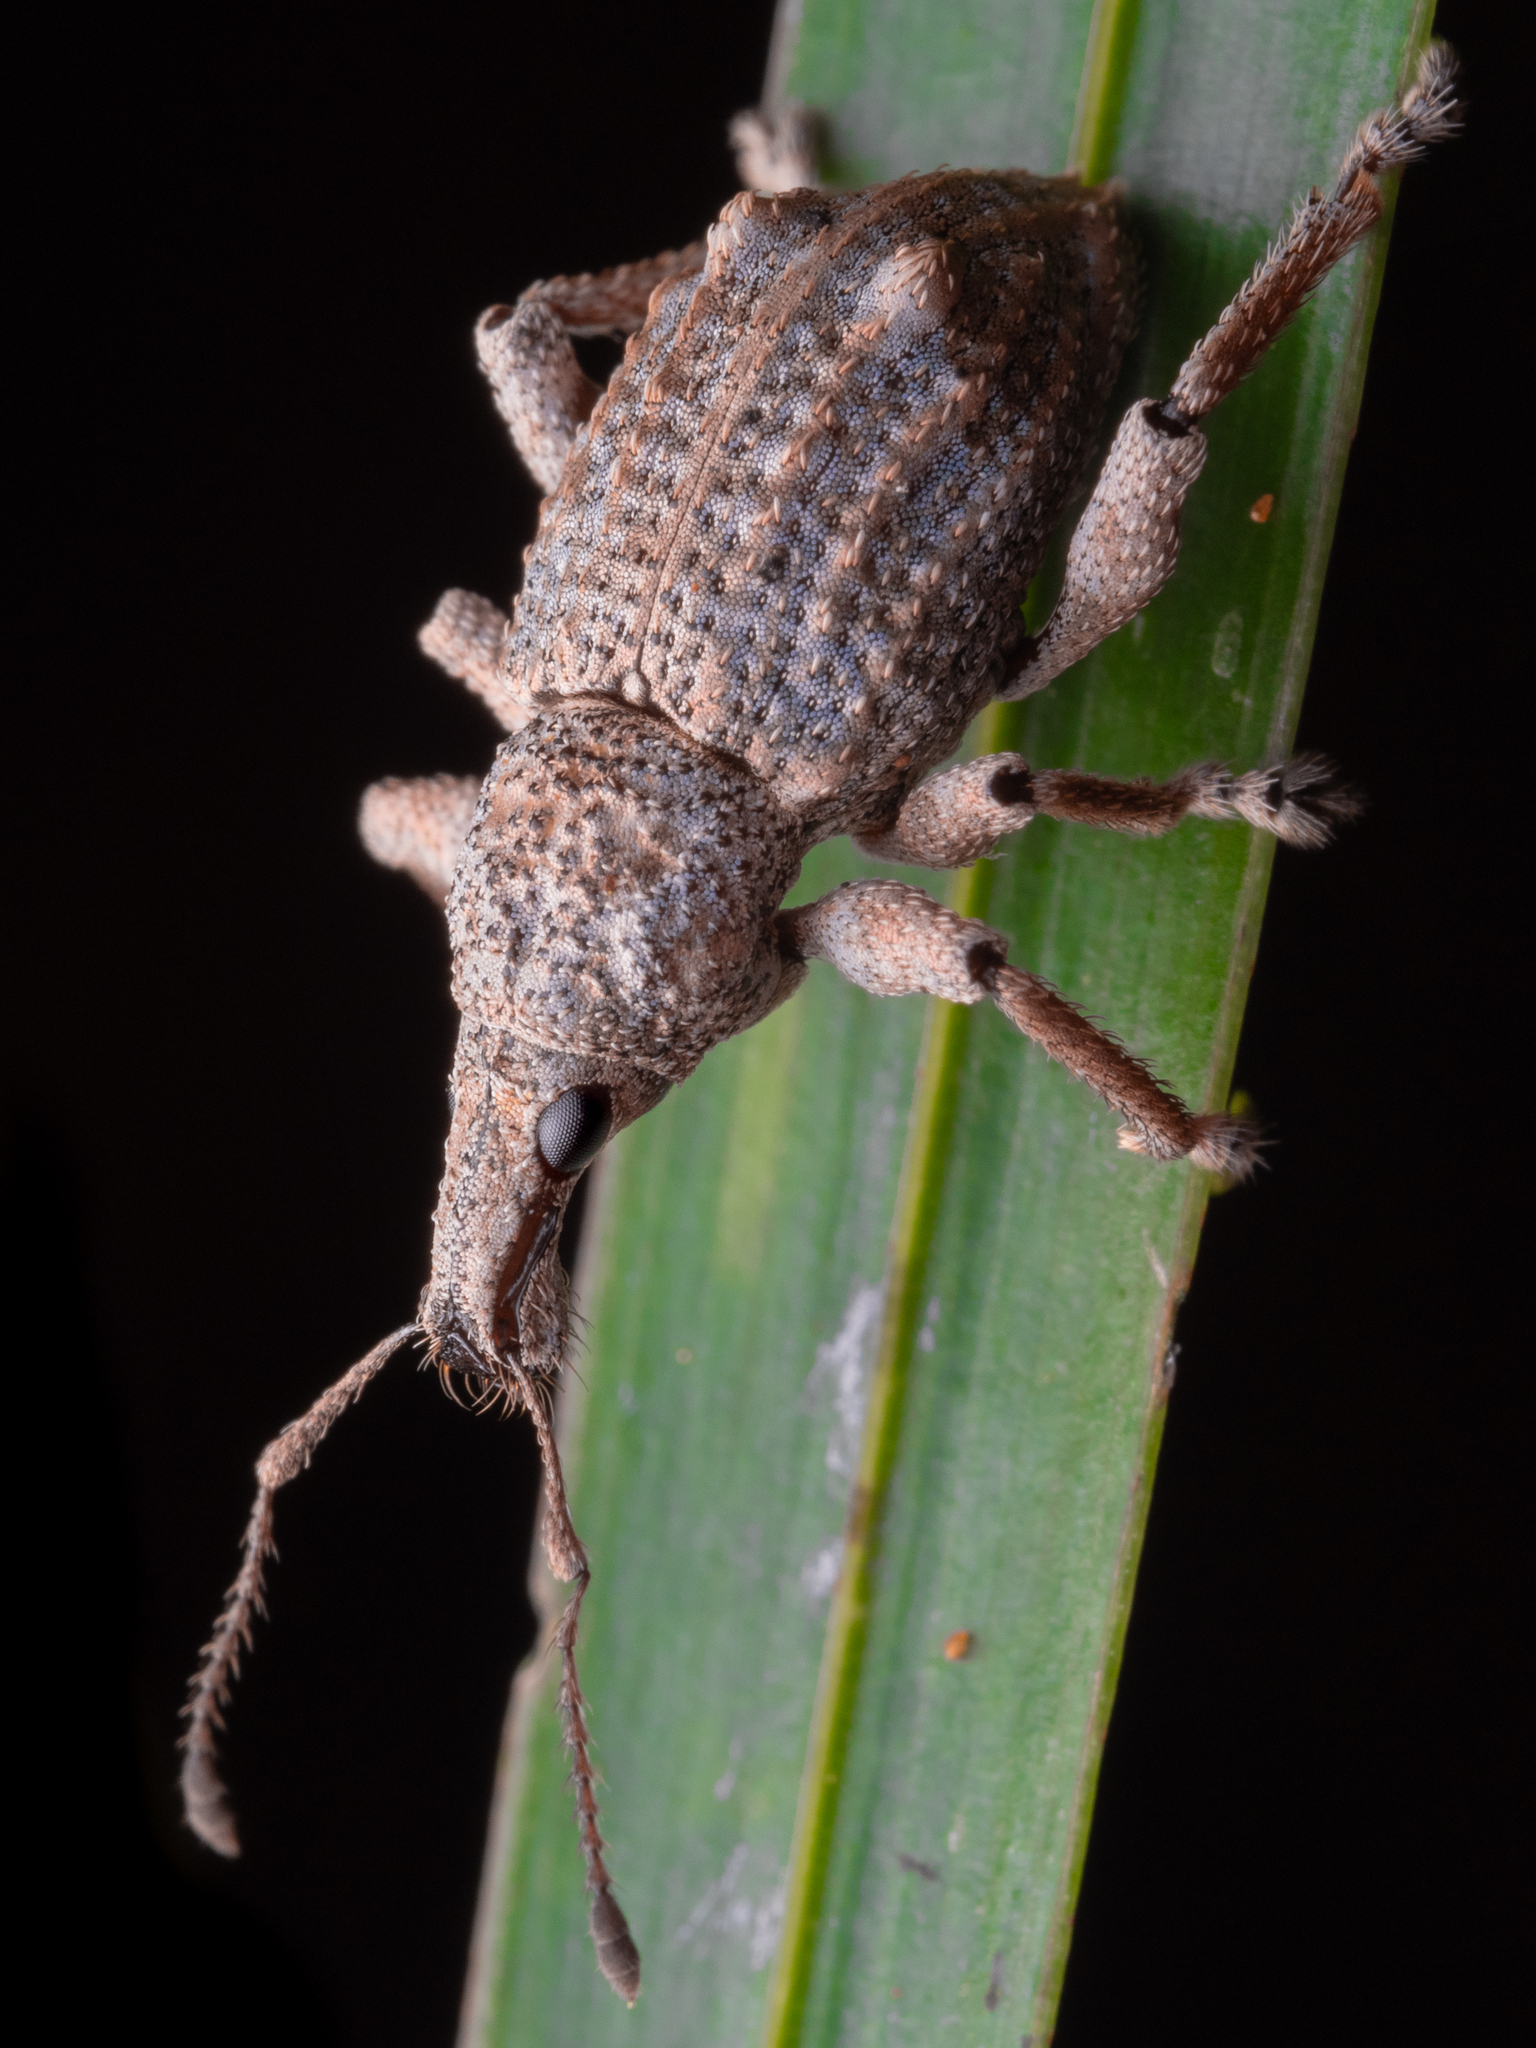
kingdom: Animalia
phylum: Arthropoda
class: Insecta
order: Coleoptera
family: Curculionidae
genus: Catoptes
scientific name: Catoptes binodis
